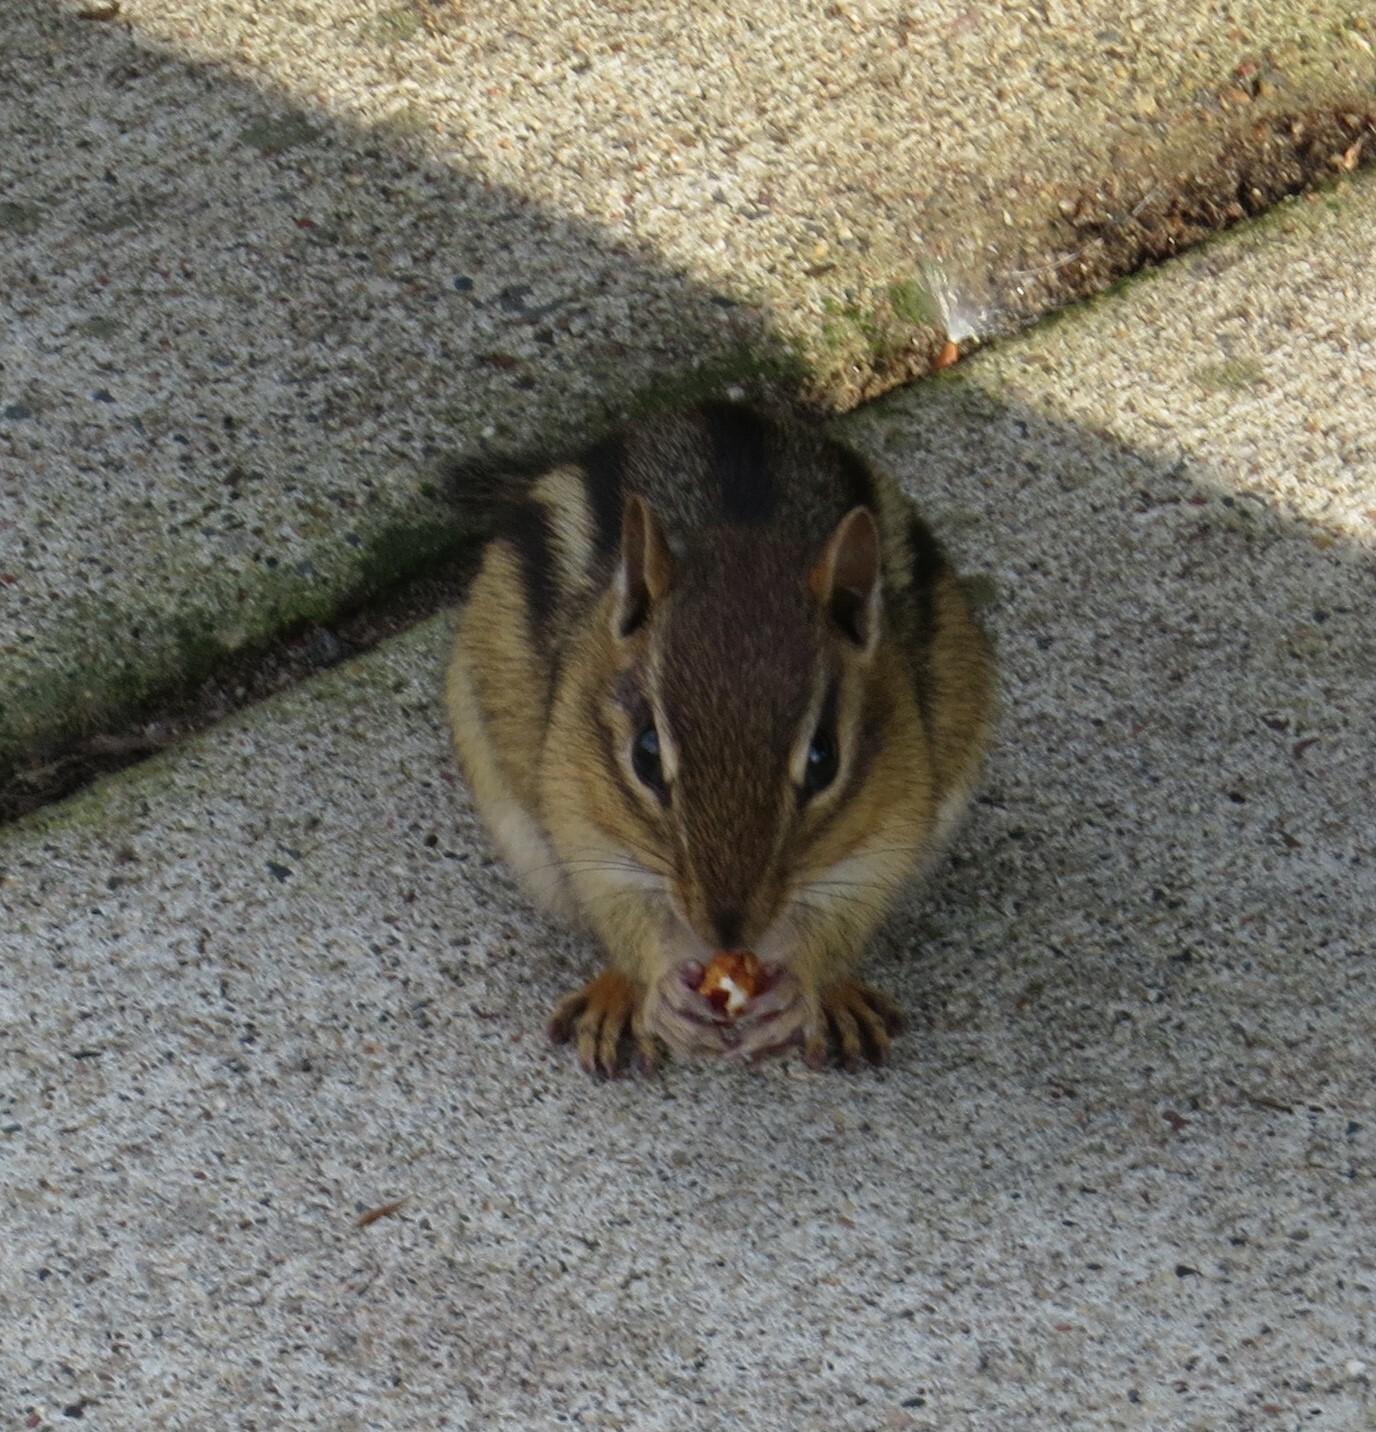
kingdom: Animalia
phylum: Chordata
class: Mammalia
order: Rodentia
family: Sciuridae
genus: Tamias
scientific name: Tamias striatus
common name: Eastern chipmunk
